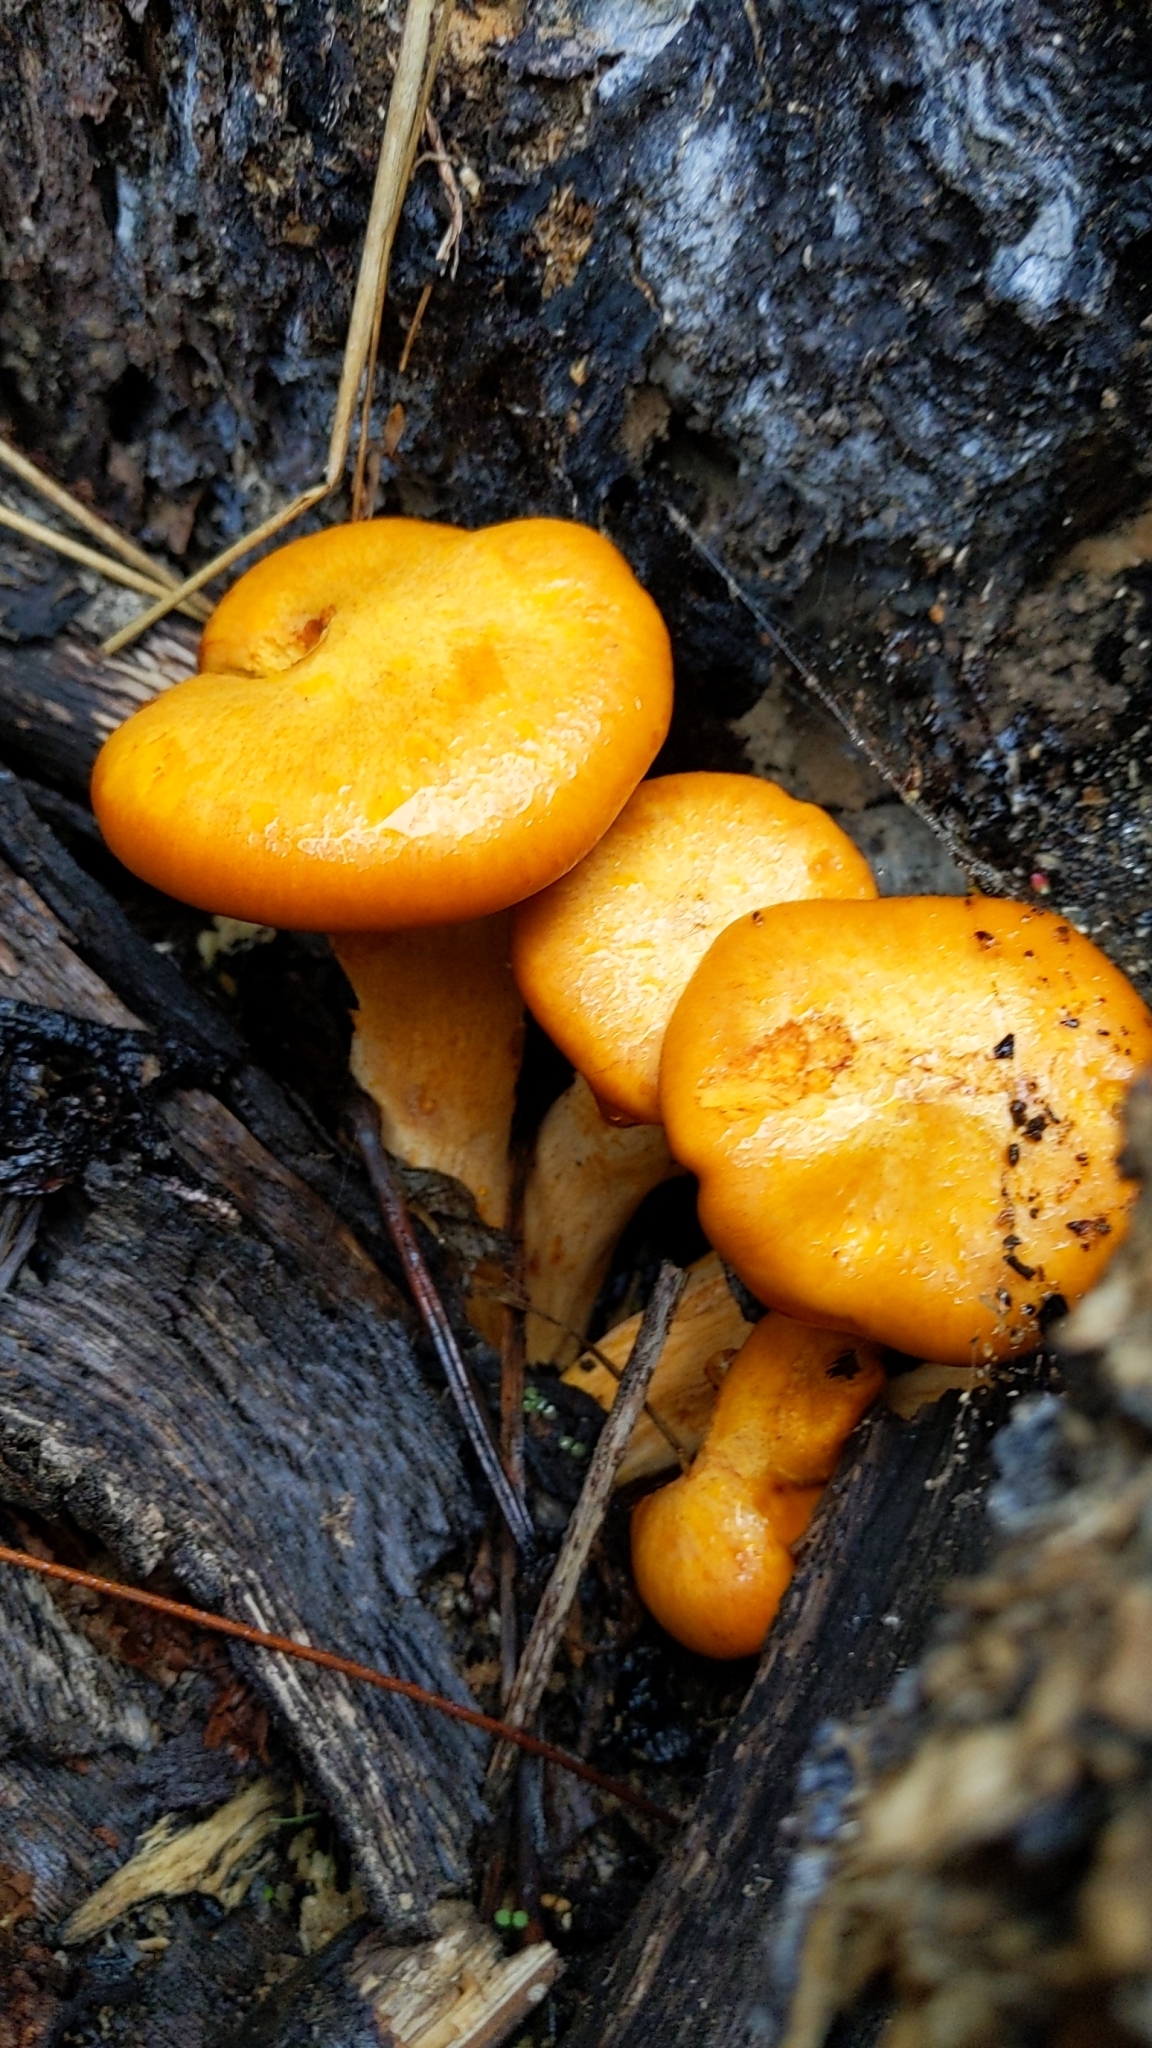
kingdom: Fungi
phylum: Basidiomycota
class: Agaricomycetes
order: Agaricales
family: Omphalotaceae
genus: Omphalotus
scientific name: Omphalotus illudens
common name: Jack o lantern
